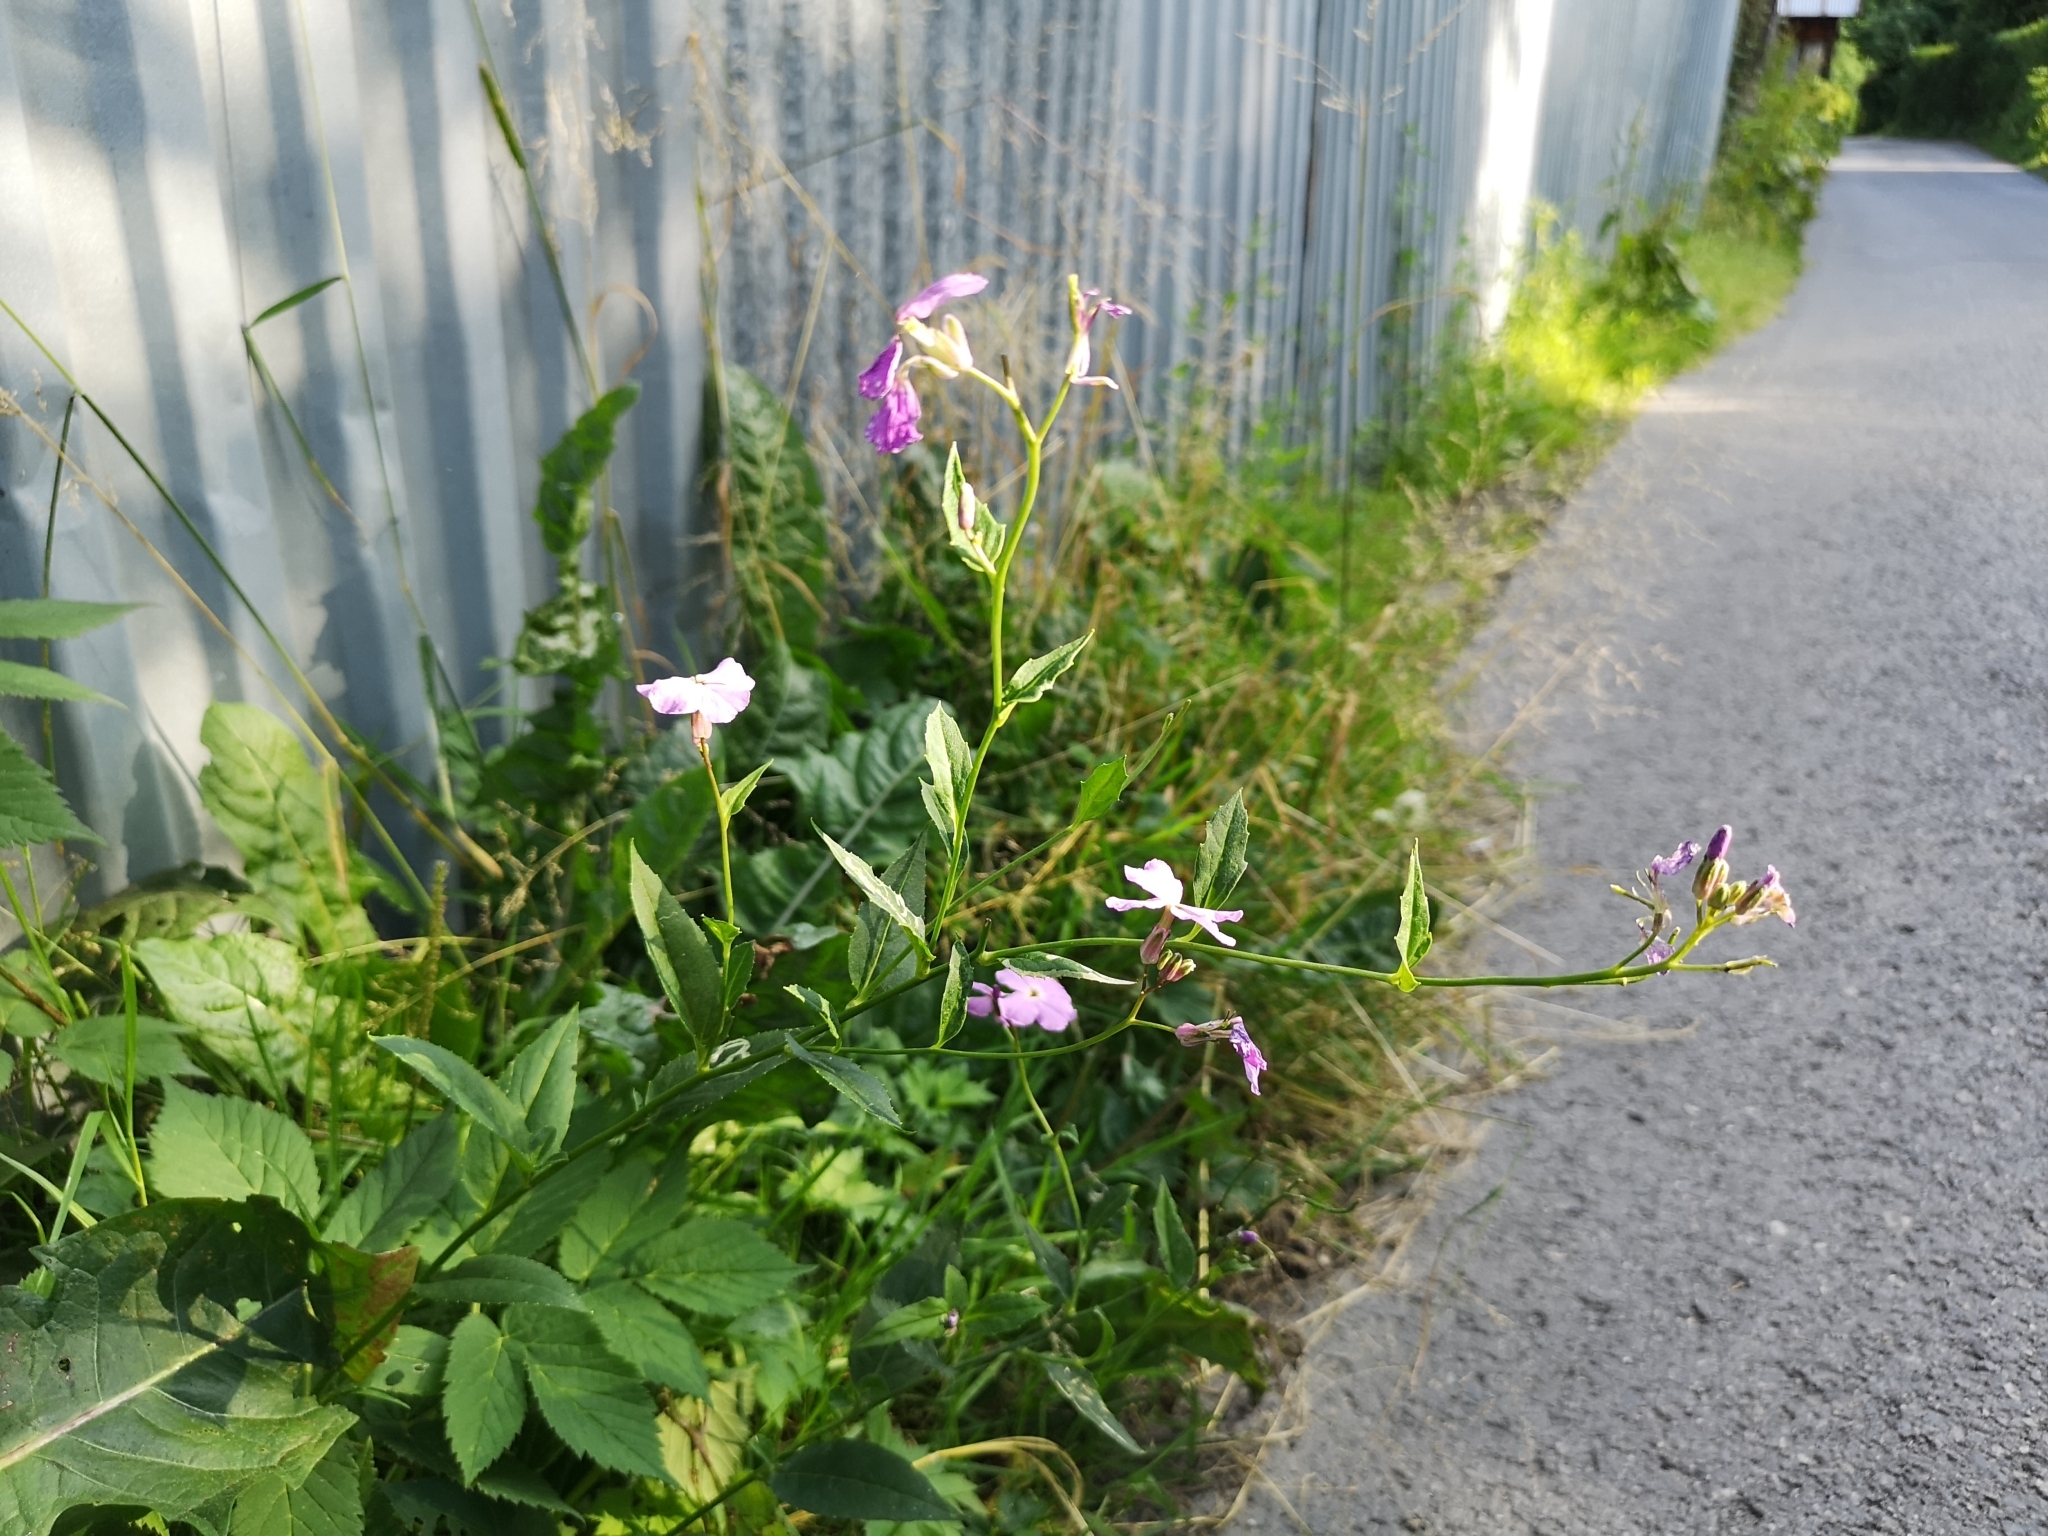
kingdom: Plantae
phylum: Tracheophyta
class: Magnoliopsida
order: Brassicales
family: Brassicaceae
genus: Hesperis
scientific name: Hesperis matronalis
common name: Dame's-violet
